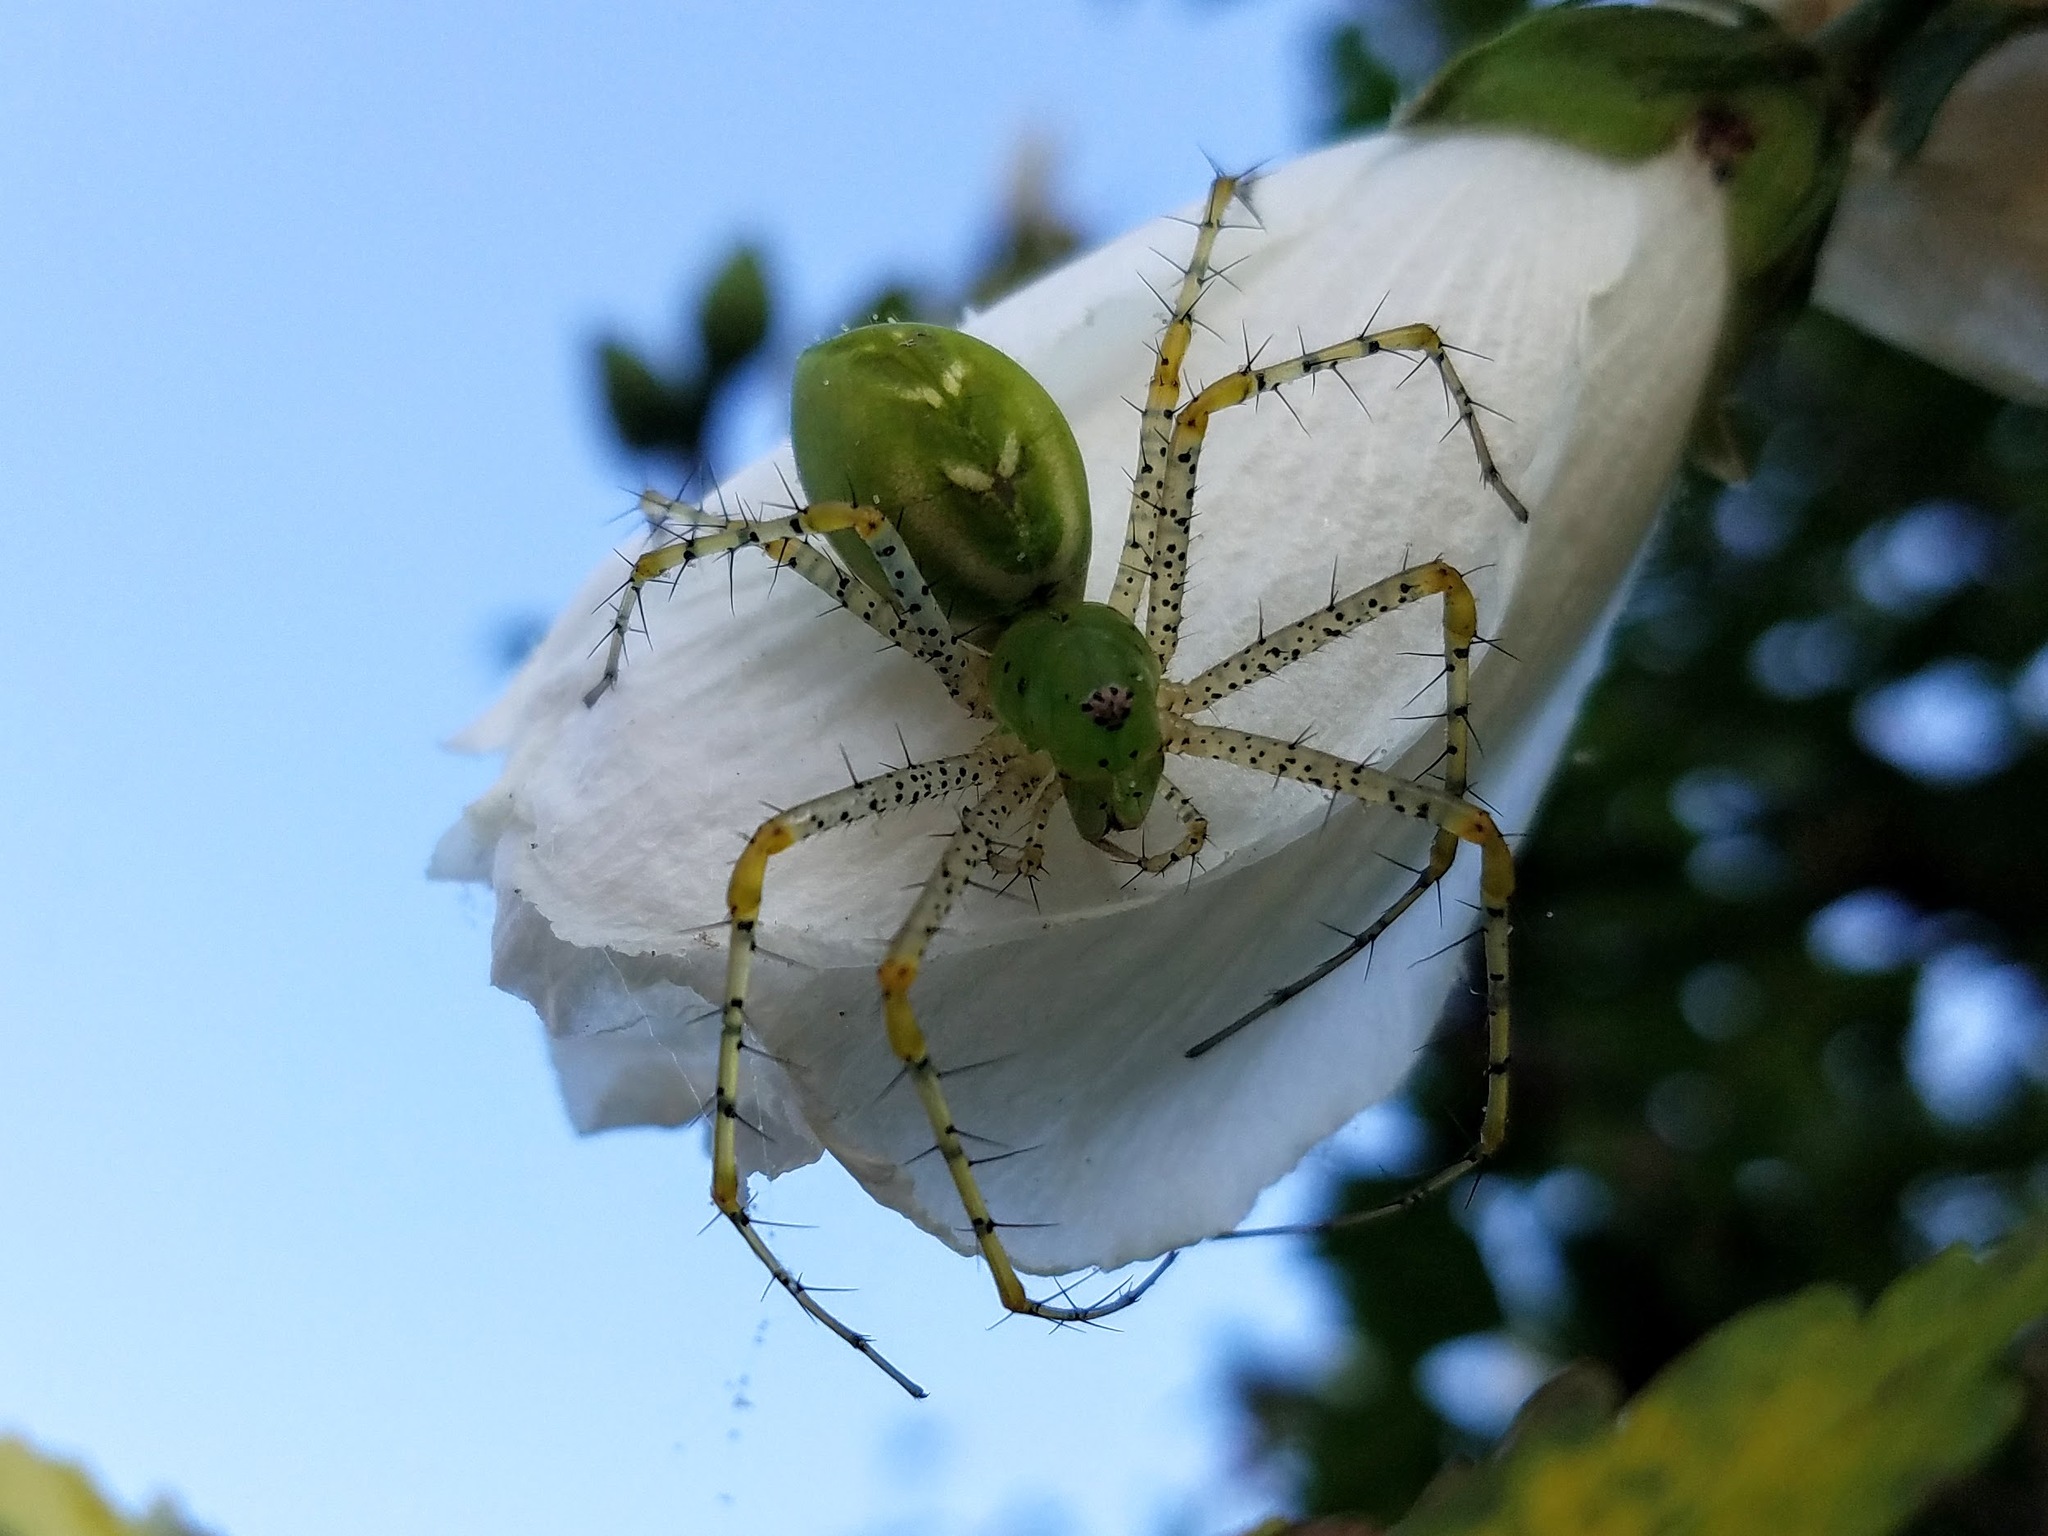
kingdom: Animalia
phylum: Arthropoda
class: Arachnida
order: Araneae
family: Oxyopidae
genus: Peucetia
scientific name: Peucetia viridans
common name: Lynx spiders
